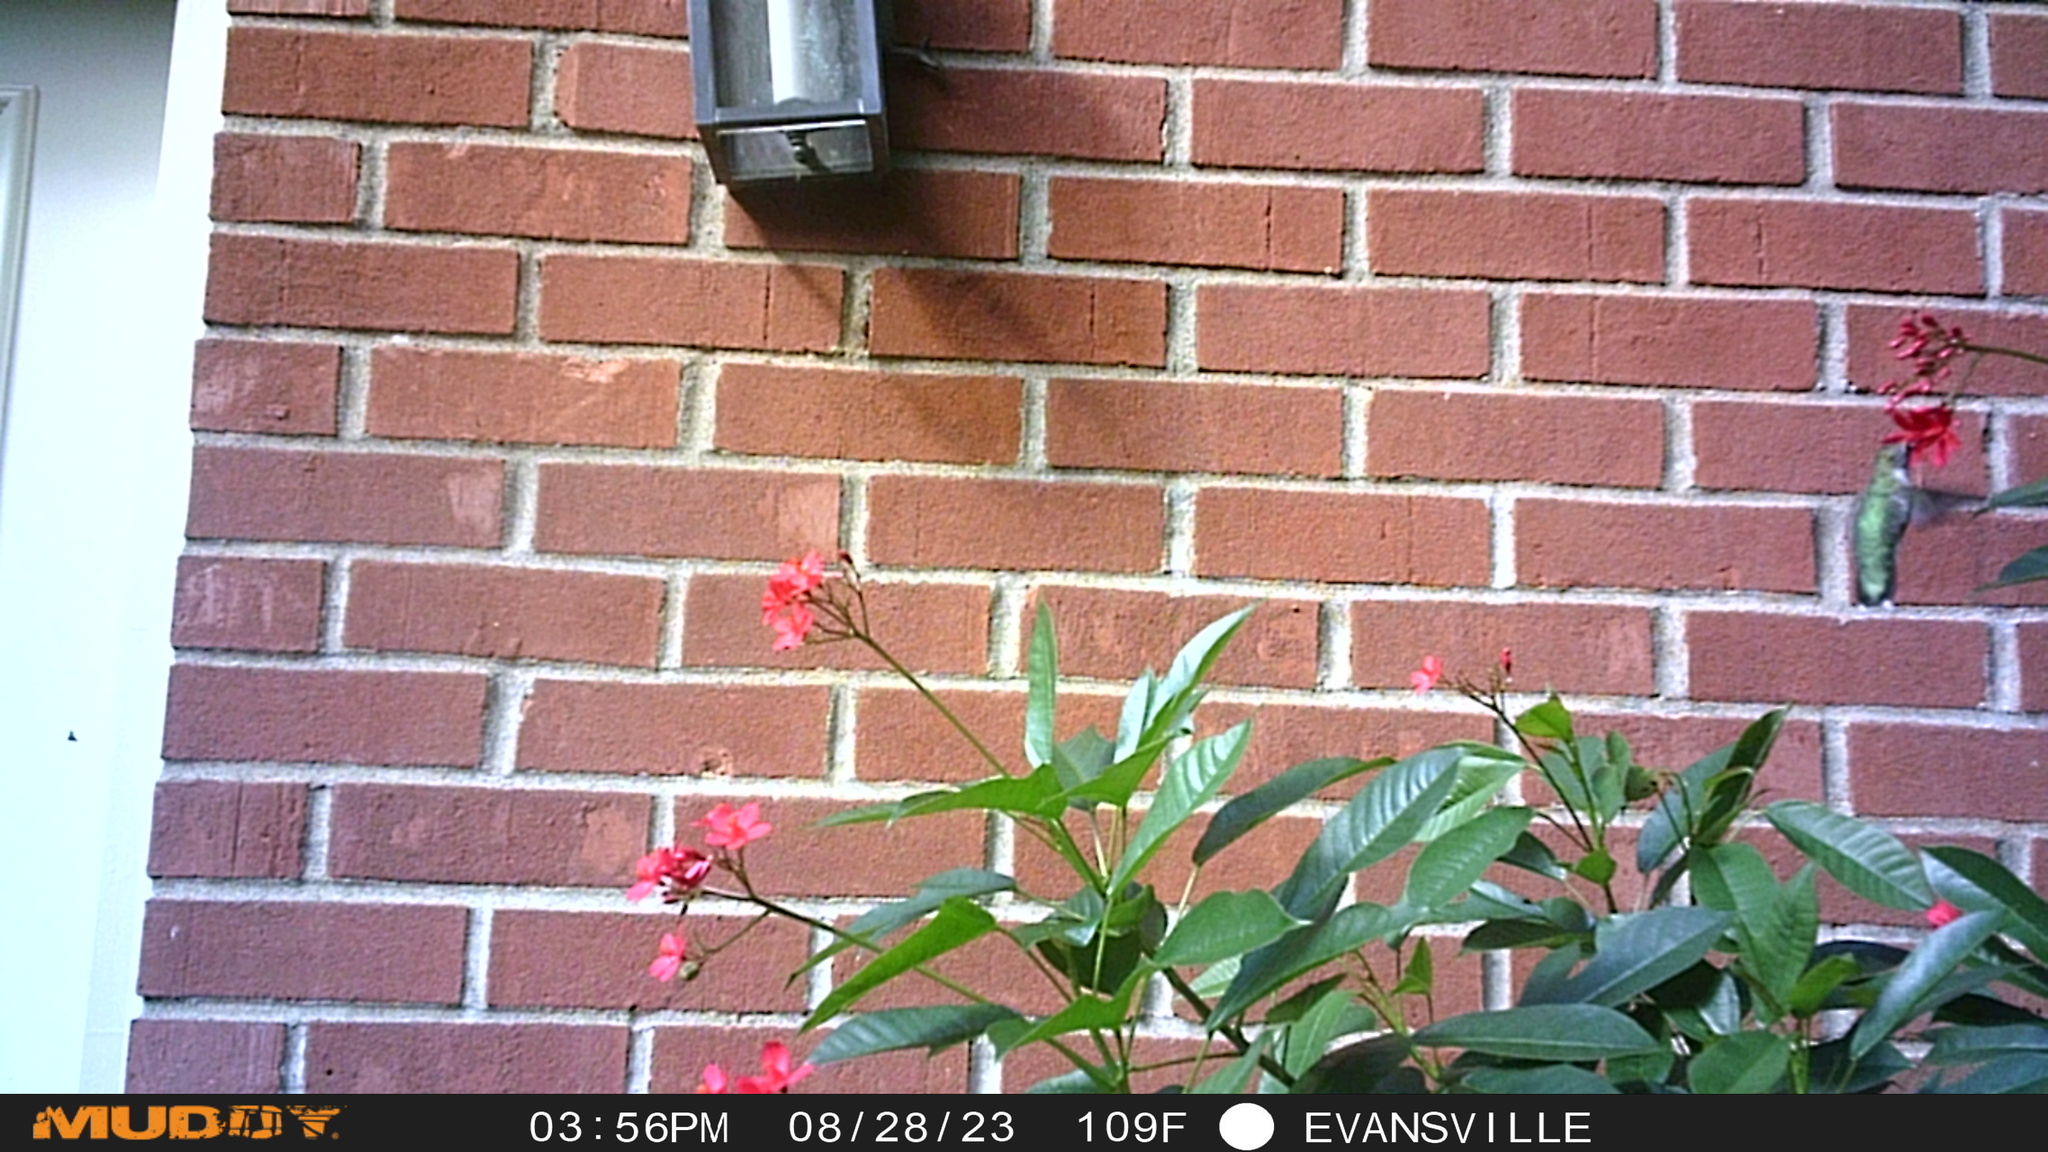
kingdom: Animalia
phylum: Chordata
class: Aves
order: Apodiformes
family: Trochilidae
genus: Archilochus
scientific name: Archilochus colubris
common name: Ruby-throated hummingbird
